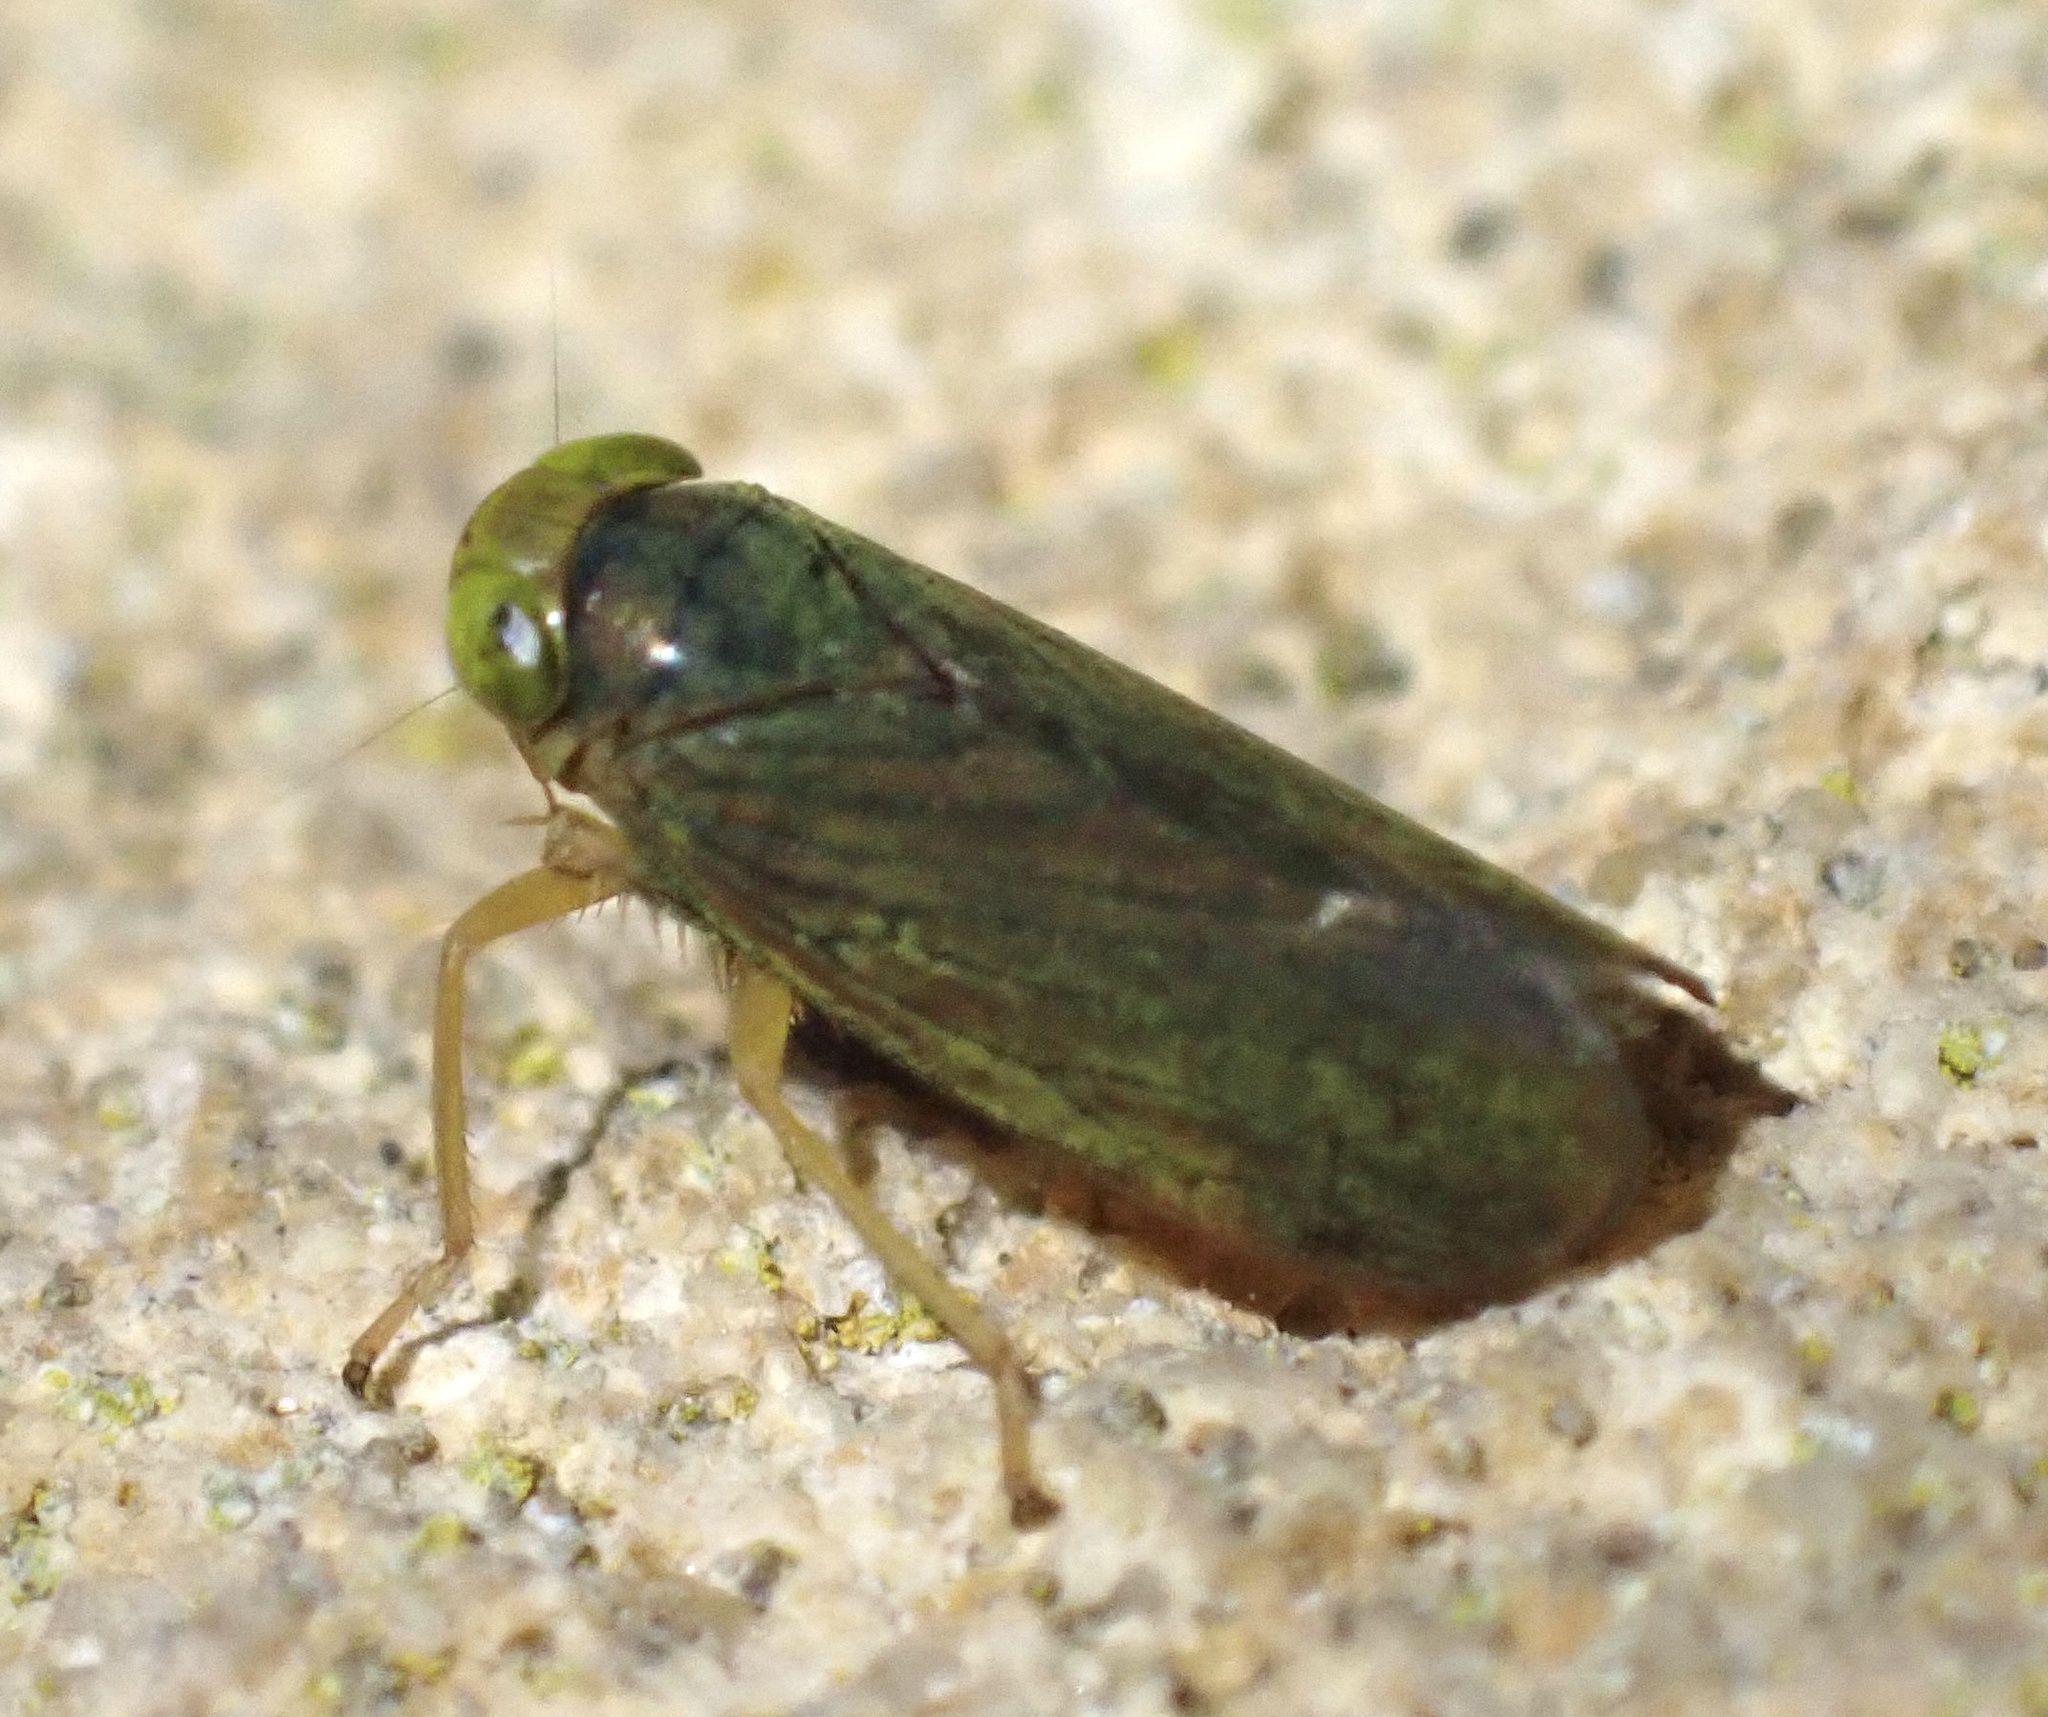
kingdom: Animalia
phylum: Arthropoda
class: Insecta
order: Hemiptera
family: Cicadellidae
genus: Jikradia
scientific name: Jikradia olitoria
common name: Coppery leafhopper
